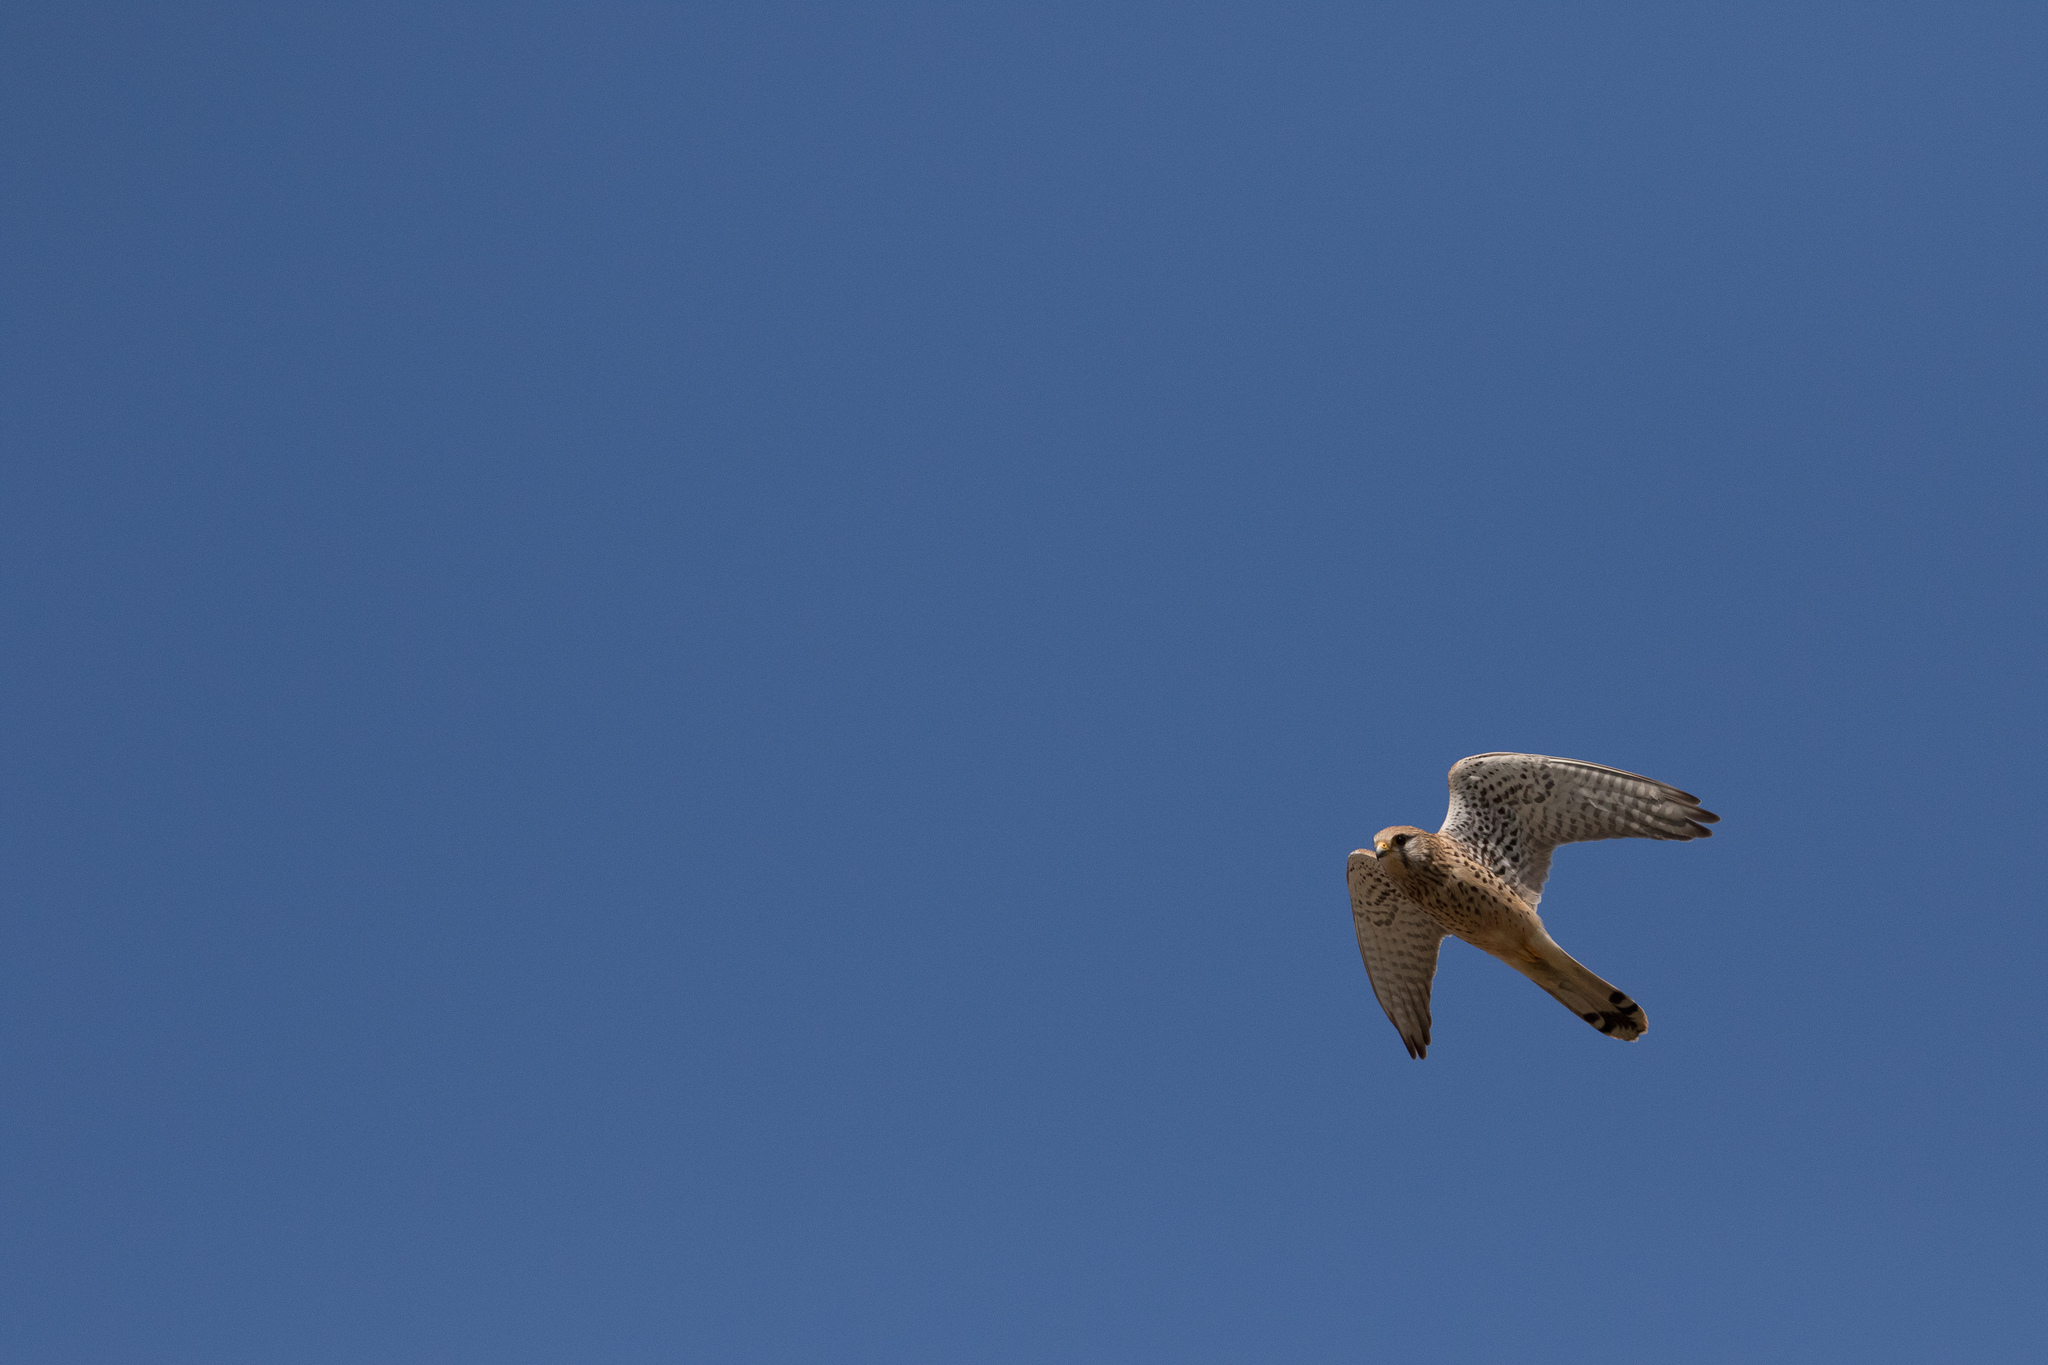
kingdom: Animalia
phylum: Chordata
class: Aves
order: Falconiformes
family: Falconidae
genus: Falco
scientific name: Falco tinnunculus
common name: Common kestrel
